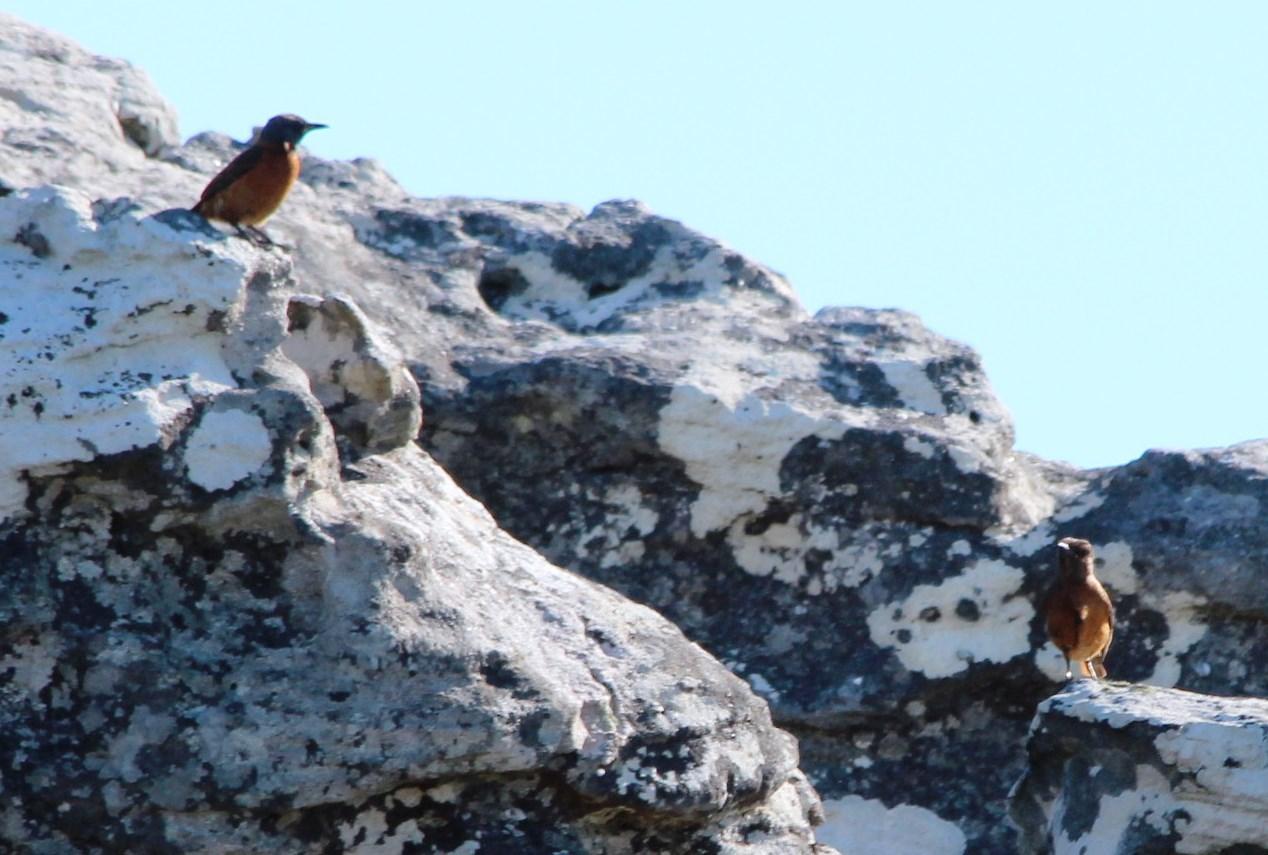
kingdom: Animalia
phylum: Chordata
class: Aves
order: Passeriformes
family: Muscicapidae
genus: Monticola
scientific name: Monticola rupestris
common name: Cape rock thrush
